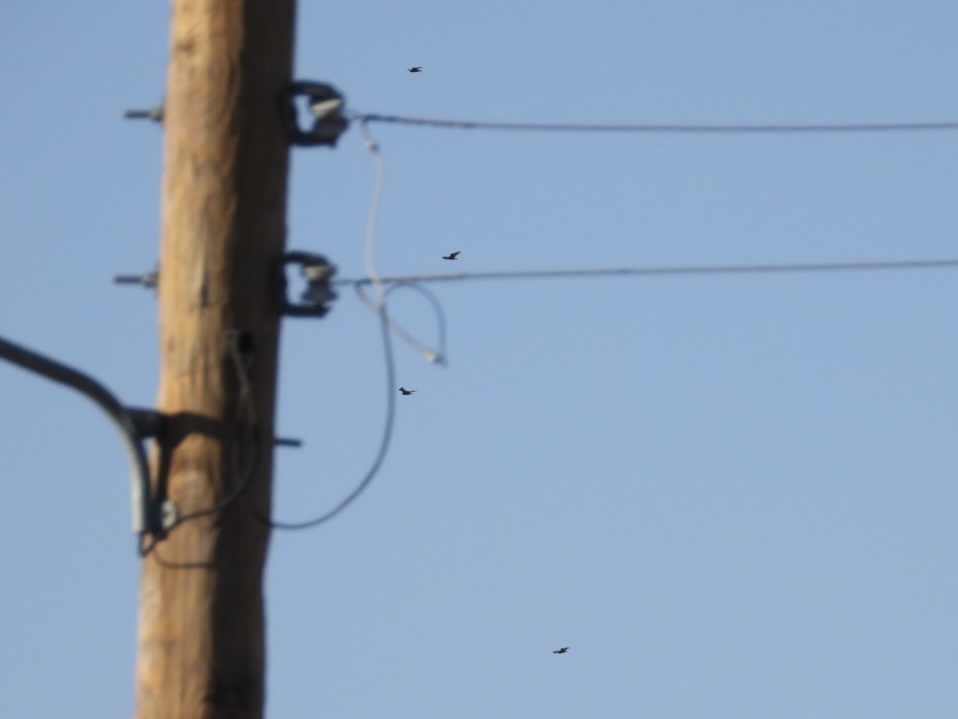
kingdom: Animalia
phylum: Chordata
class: Aves
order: Accipitriformes
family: Cathartidae
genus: Cathartes
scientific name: Cathartes aura
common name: Turkey vulture
